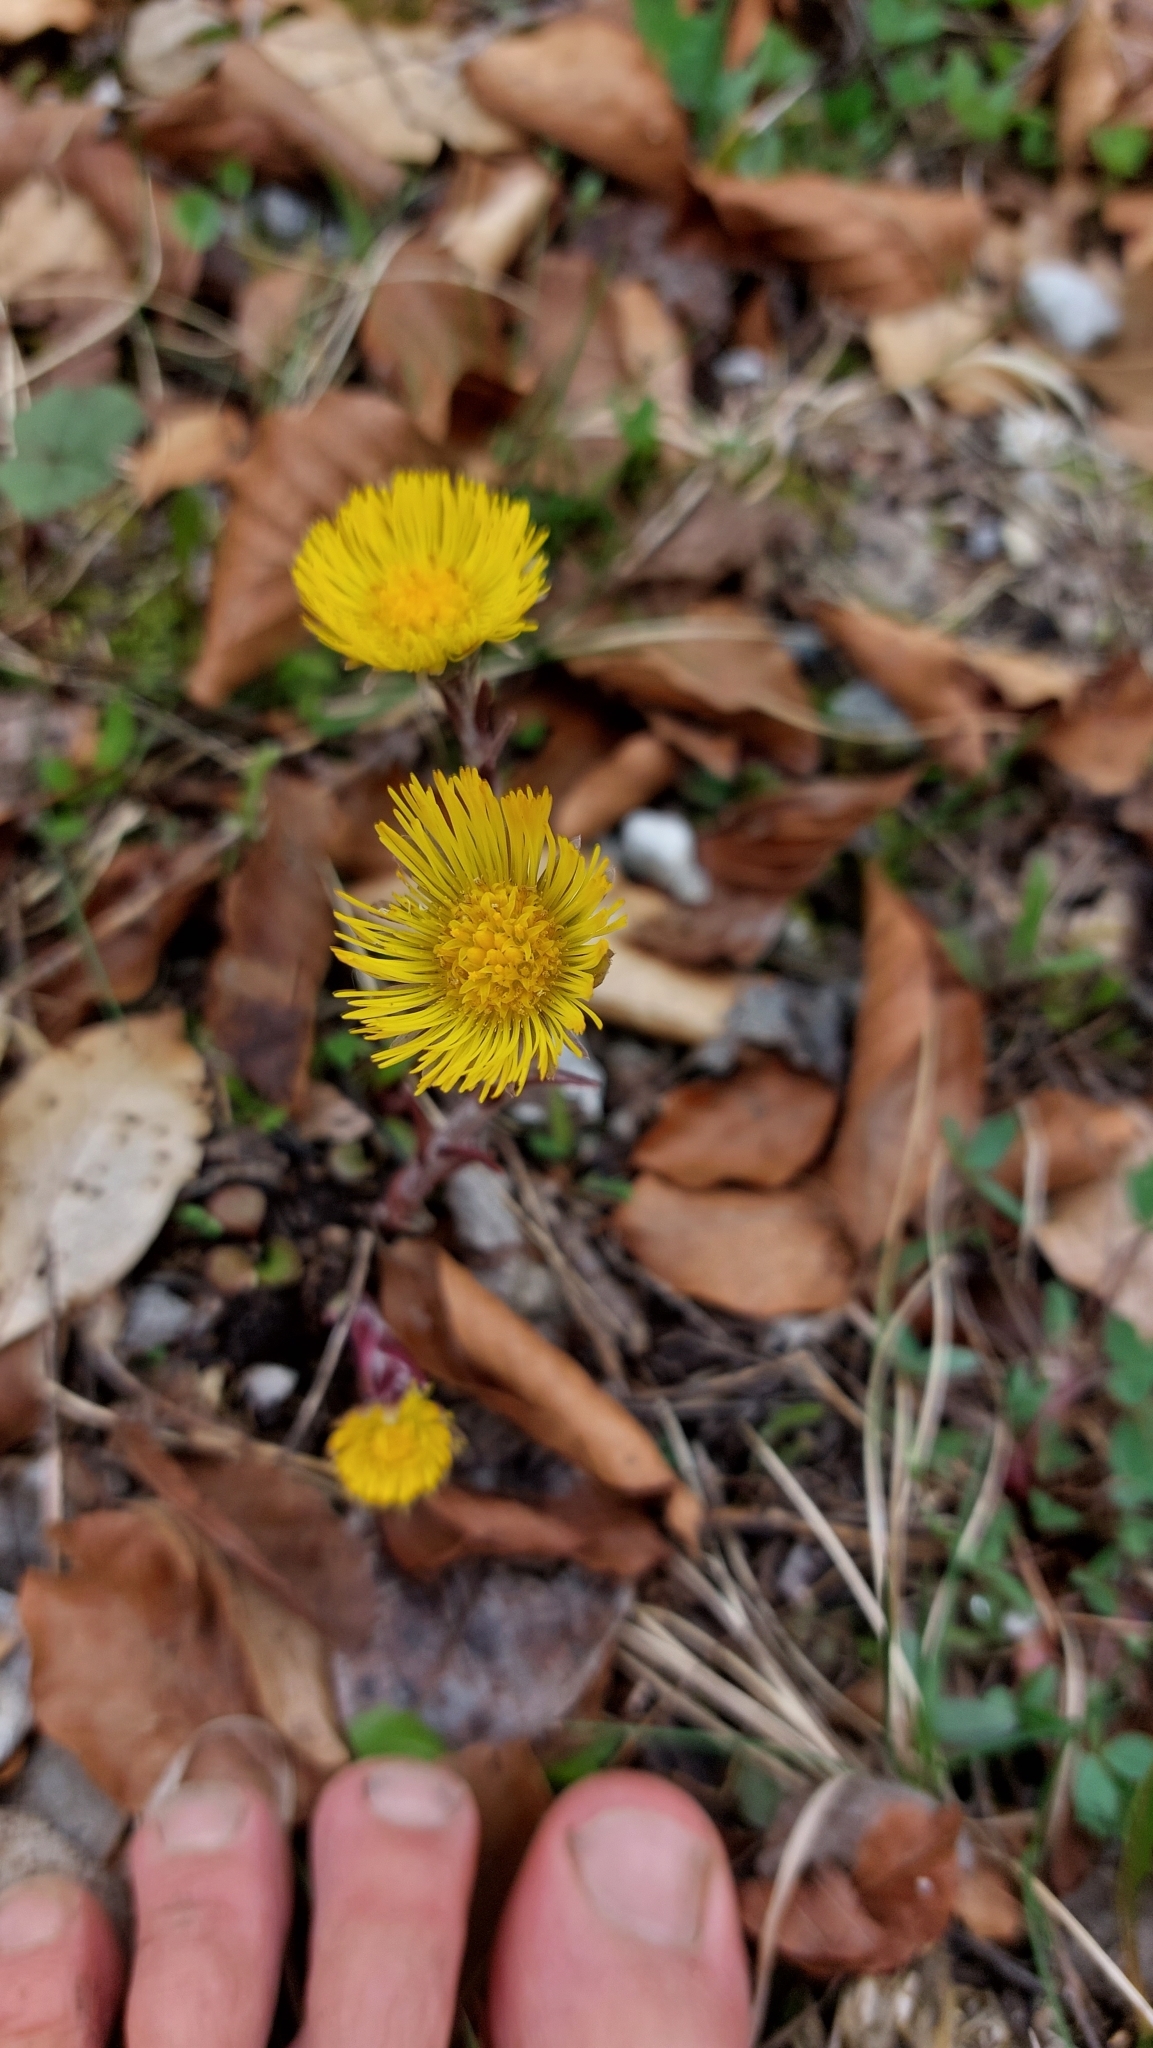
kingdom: Plantae
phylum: Tracheophyta
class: Magnoliopsida
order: Asterales
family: Asteraceae
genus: Tussilago
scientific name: Tussilago farfara
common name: Coltsfoot
